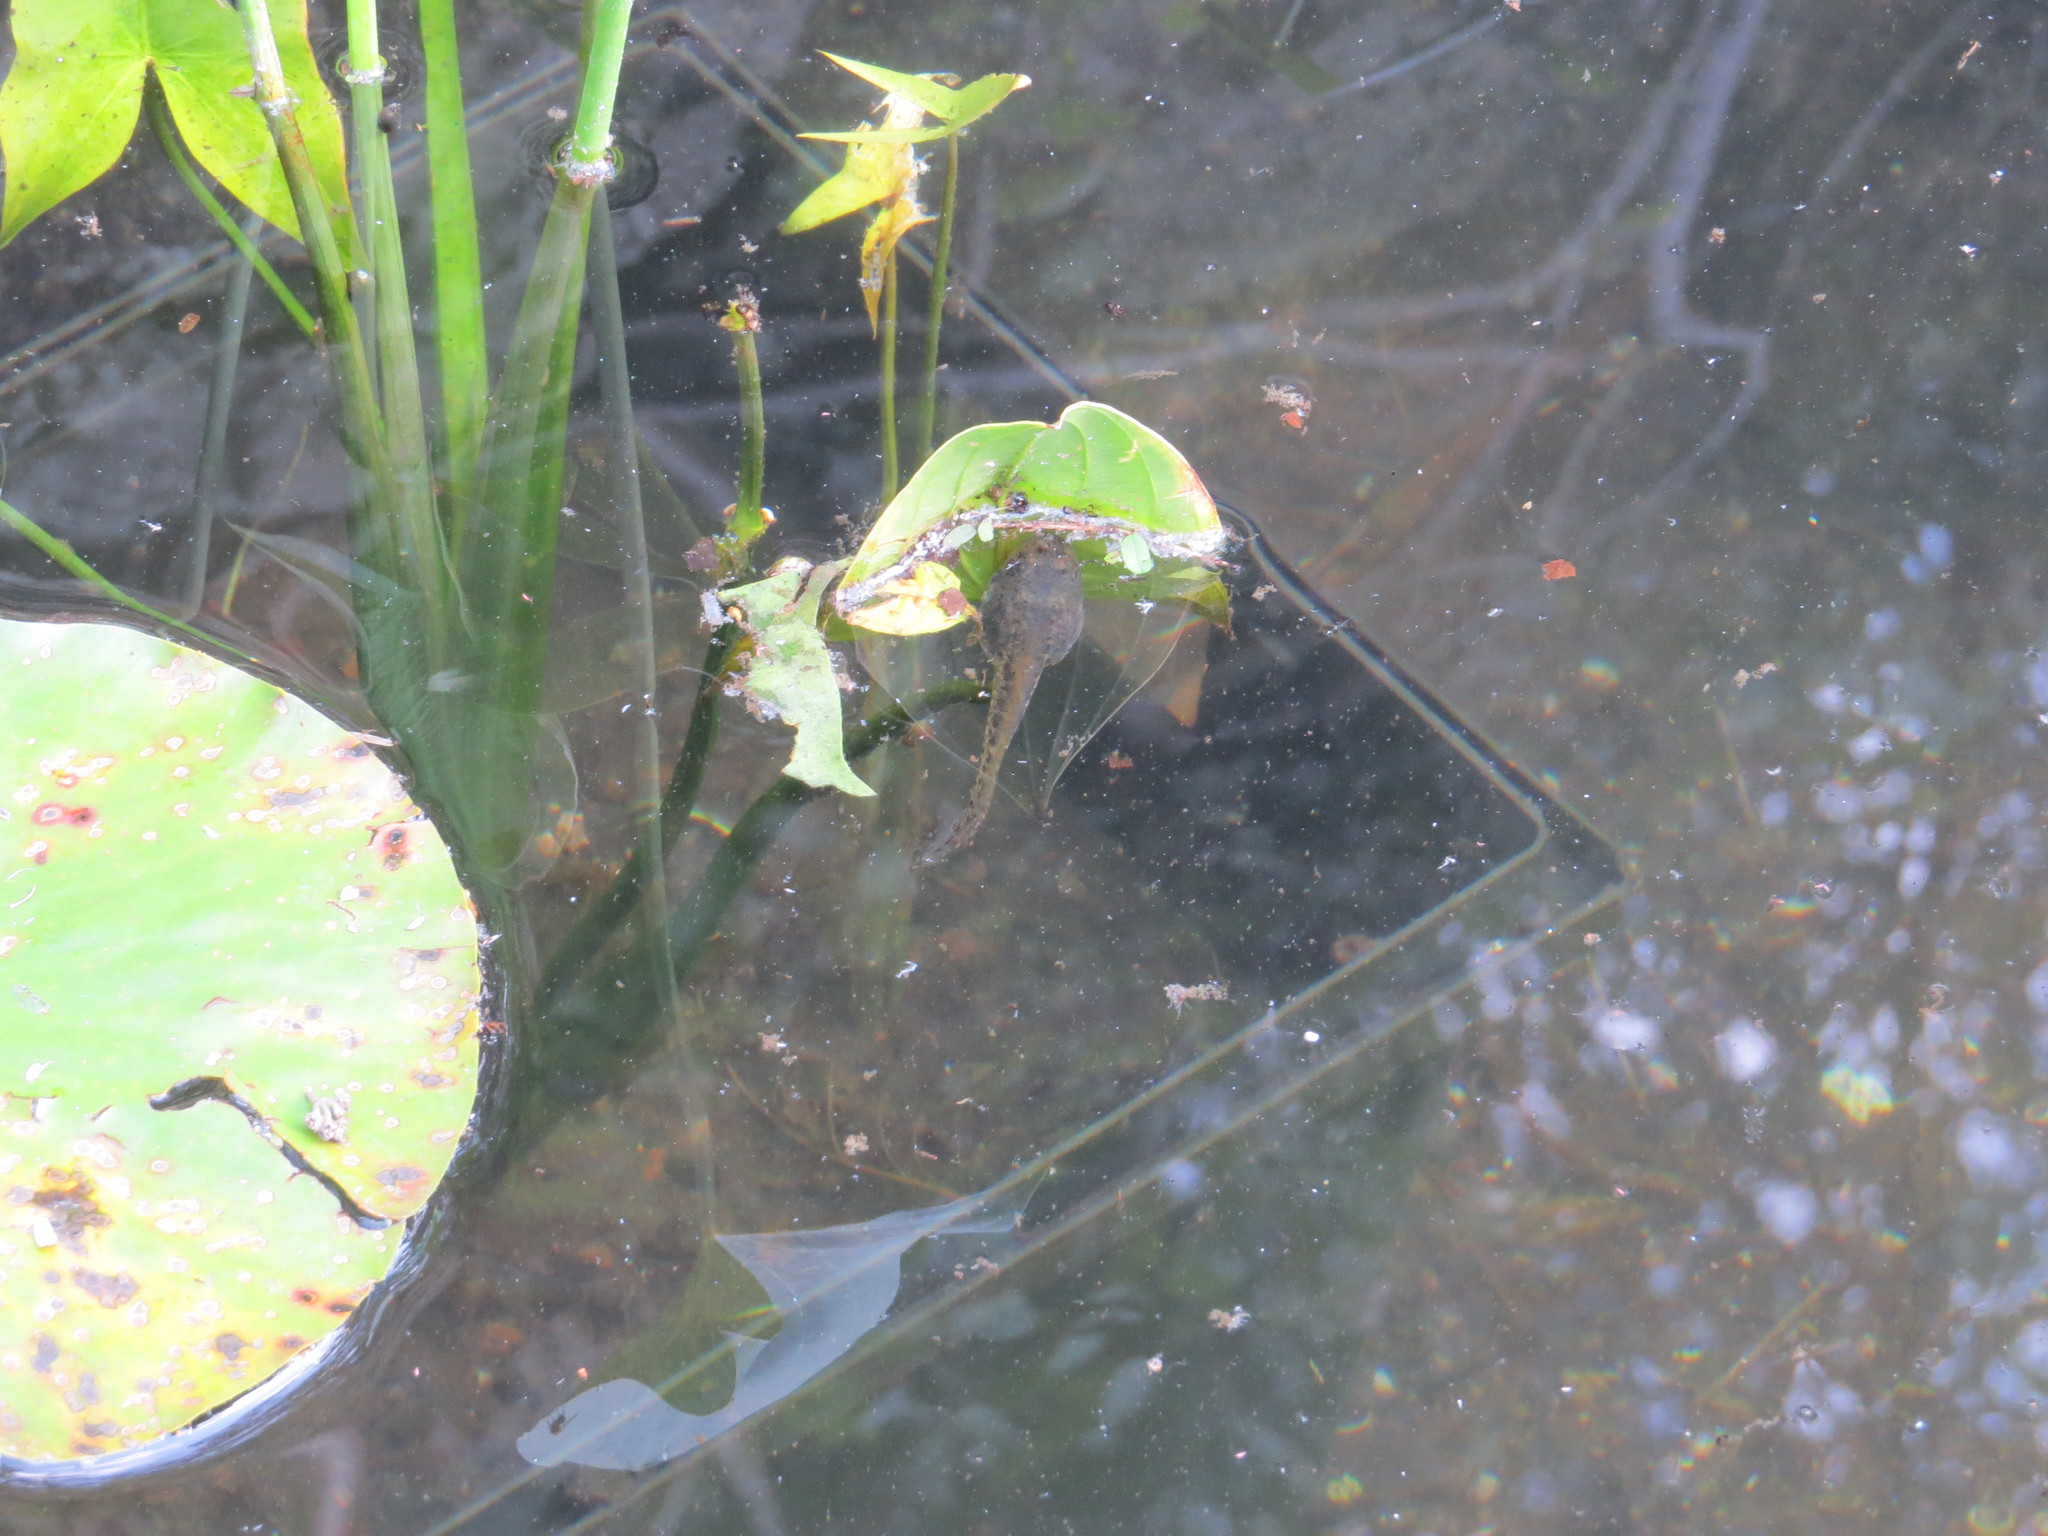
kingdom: Animalia
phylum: Chordata
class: Amphibia
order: Anura
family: Ranidae
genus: Lithobates
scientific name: Lithobates montezumae
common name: Montezuma leopard frog
